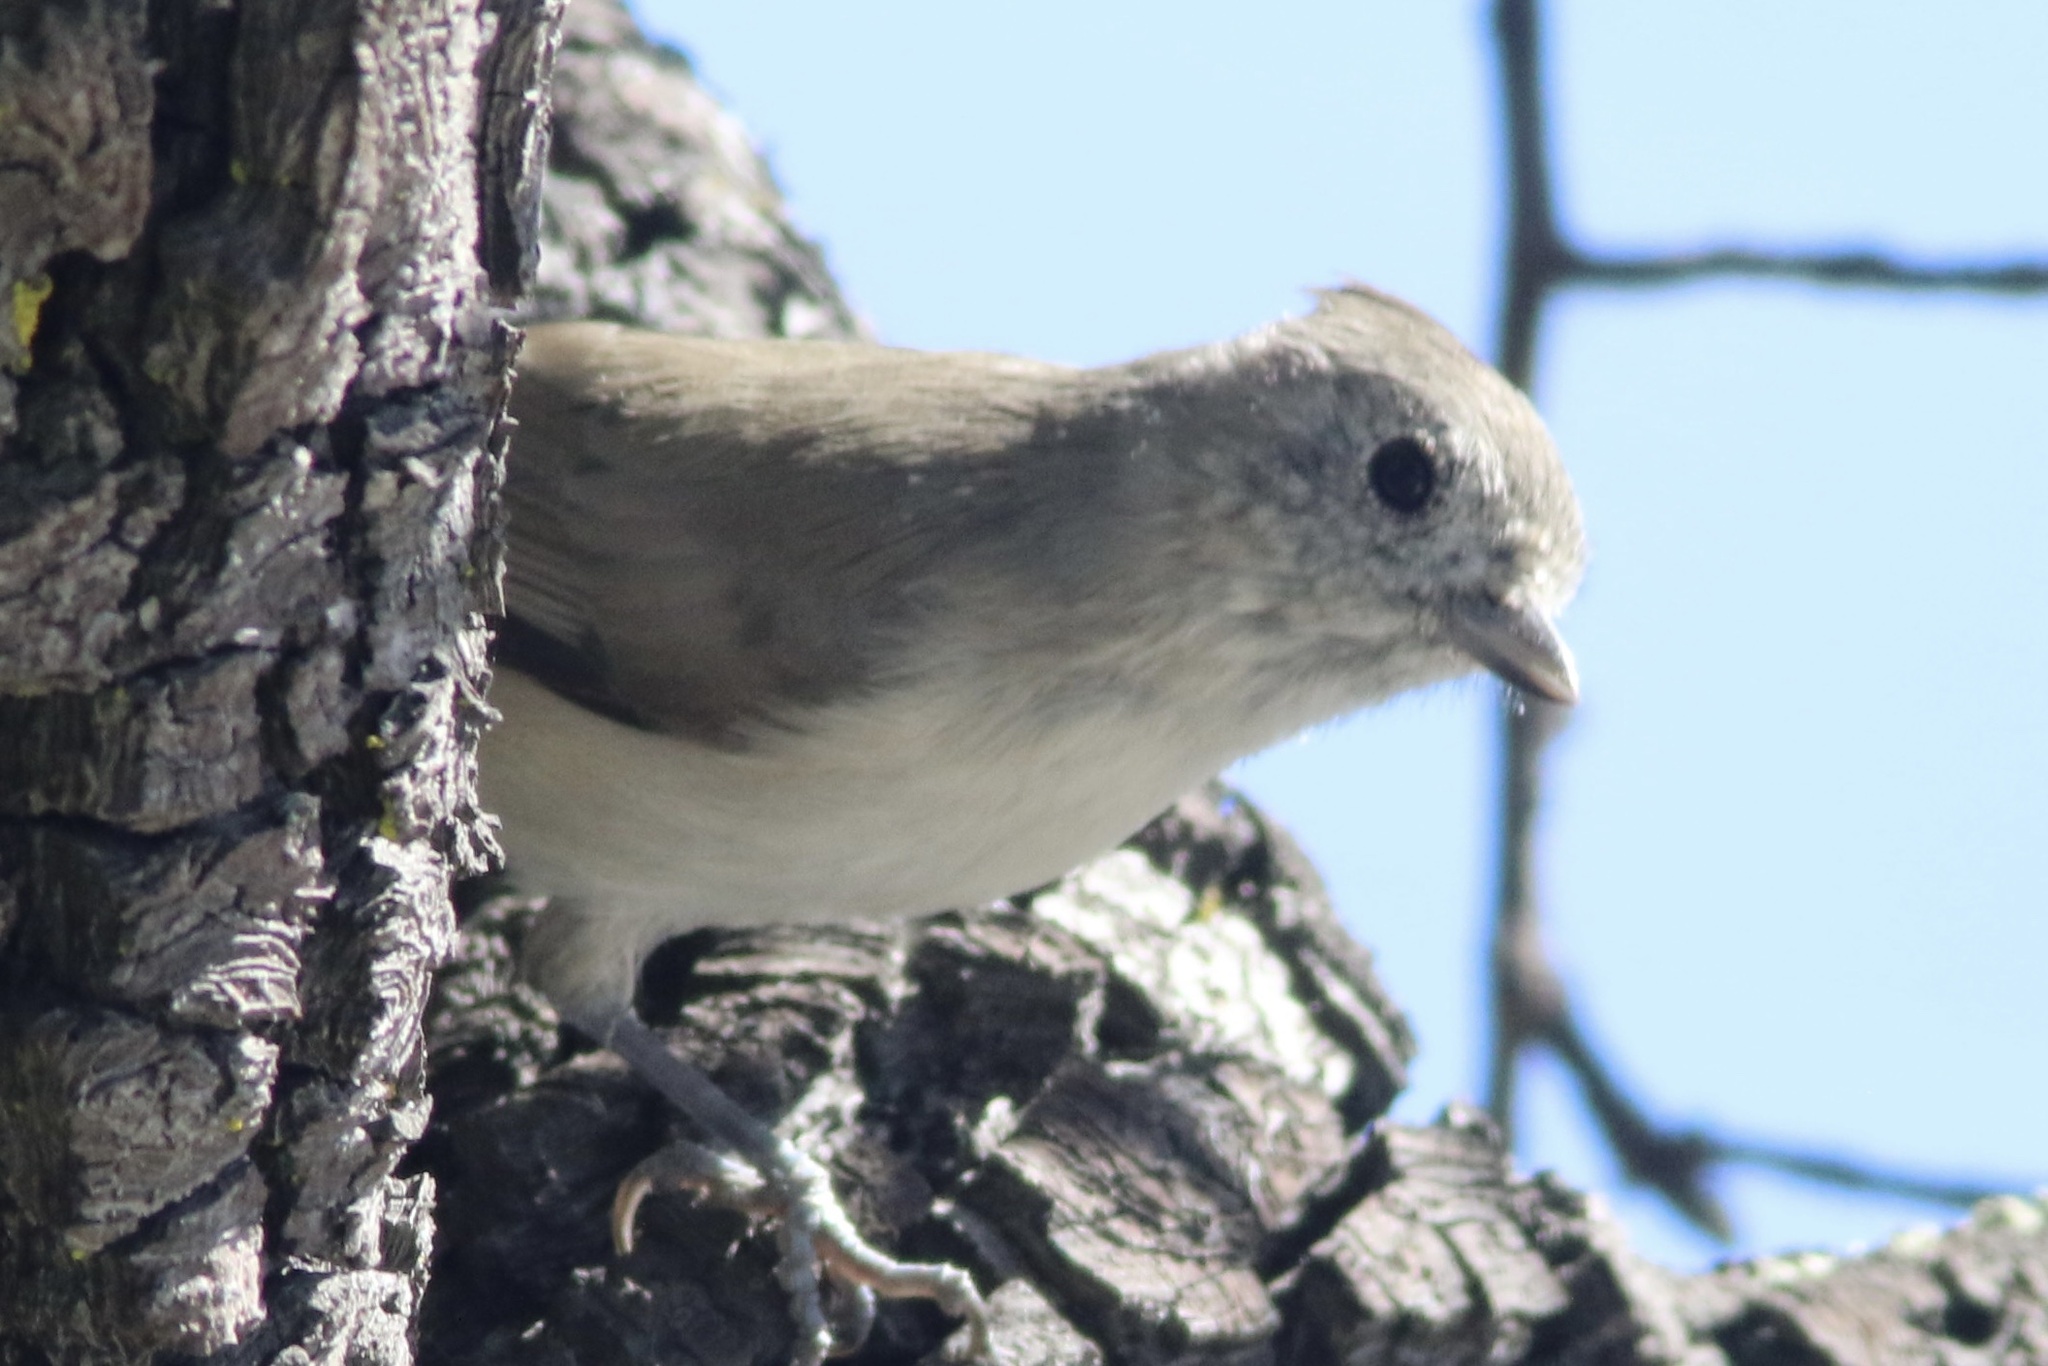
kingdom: Animalia
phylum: Chordata
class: Aves
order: Passeriformes
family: Paridae
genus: Baeolophus
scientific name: Baeolophus inornatus
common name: Oak titmouse
